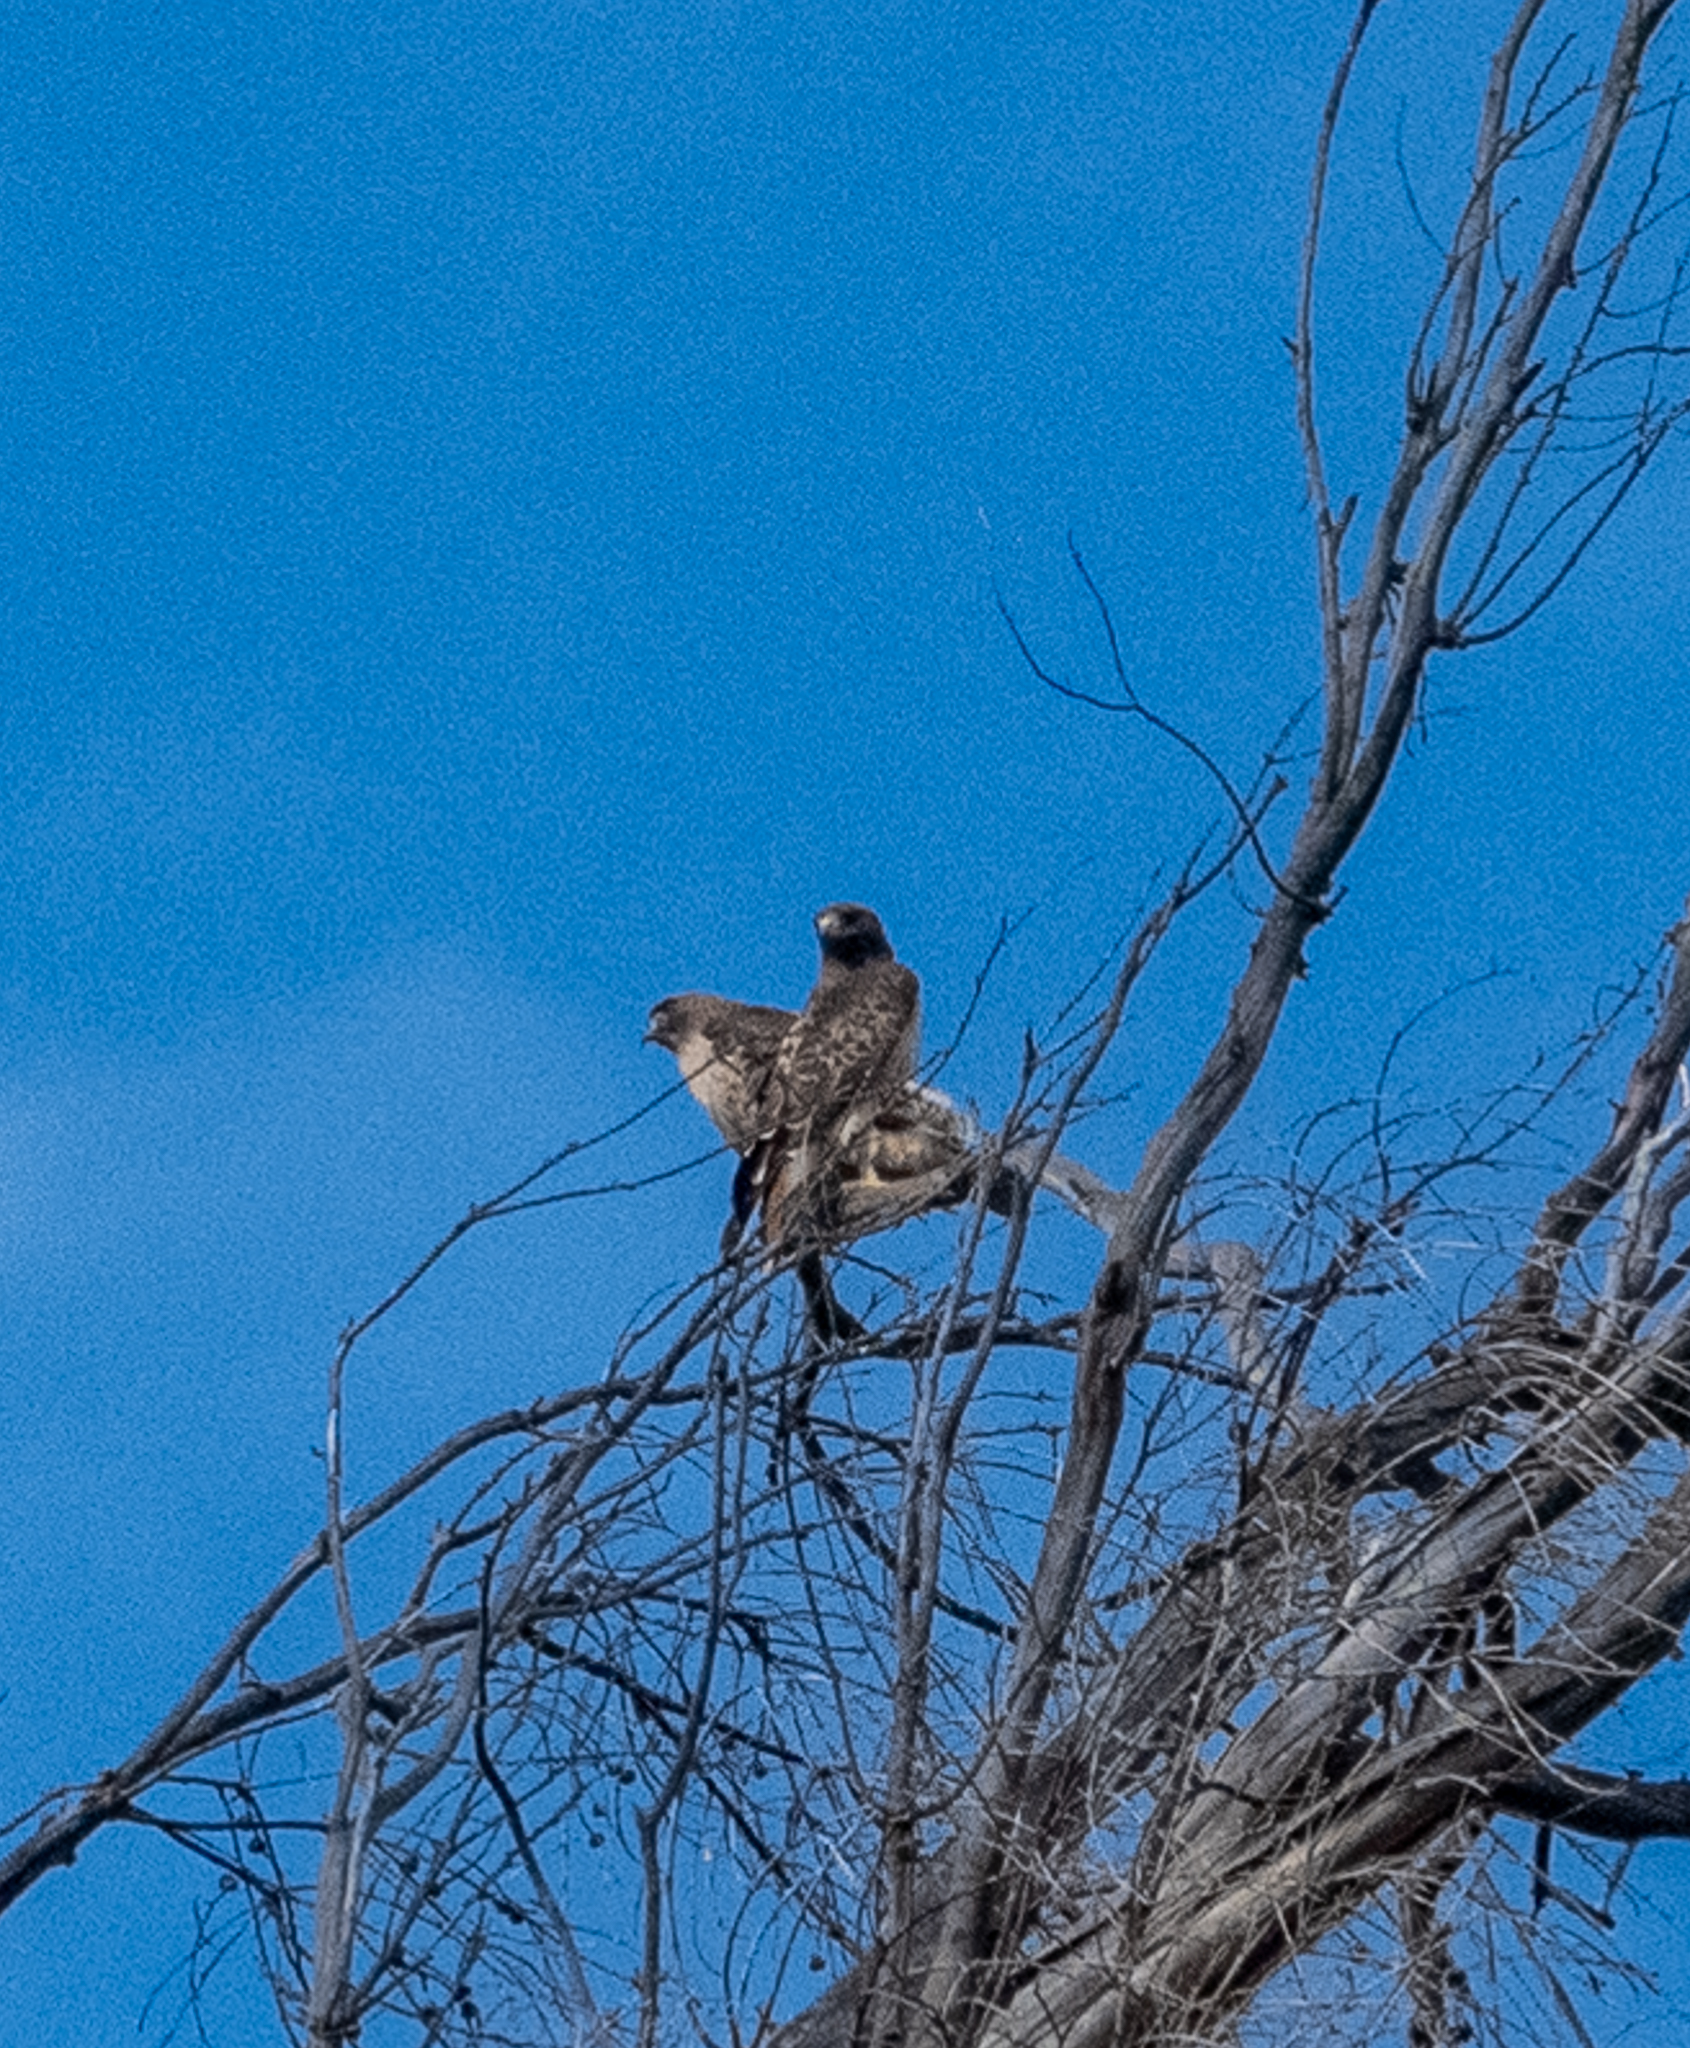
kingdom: Animalia
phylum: Chordata
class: Aves
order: Accipitriformes
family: Accipitridae
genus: Buteo
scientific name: Buteo jamaicensis
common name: Red-tailed hawk
